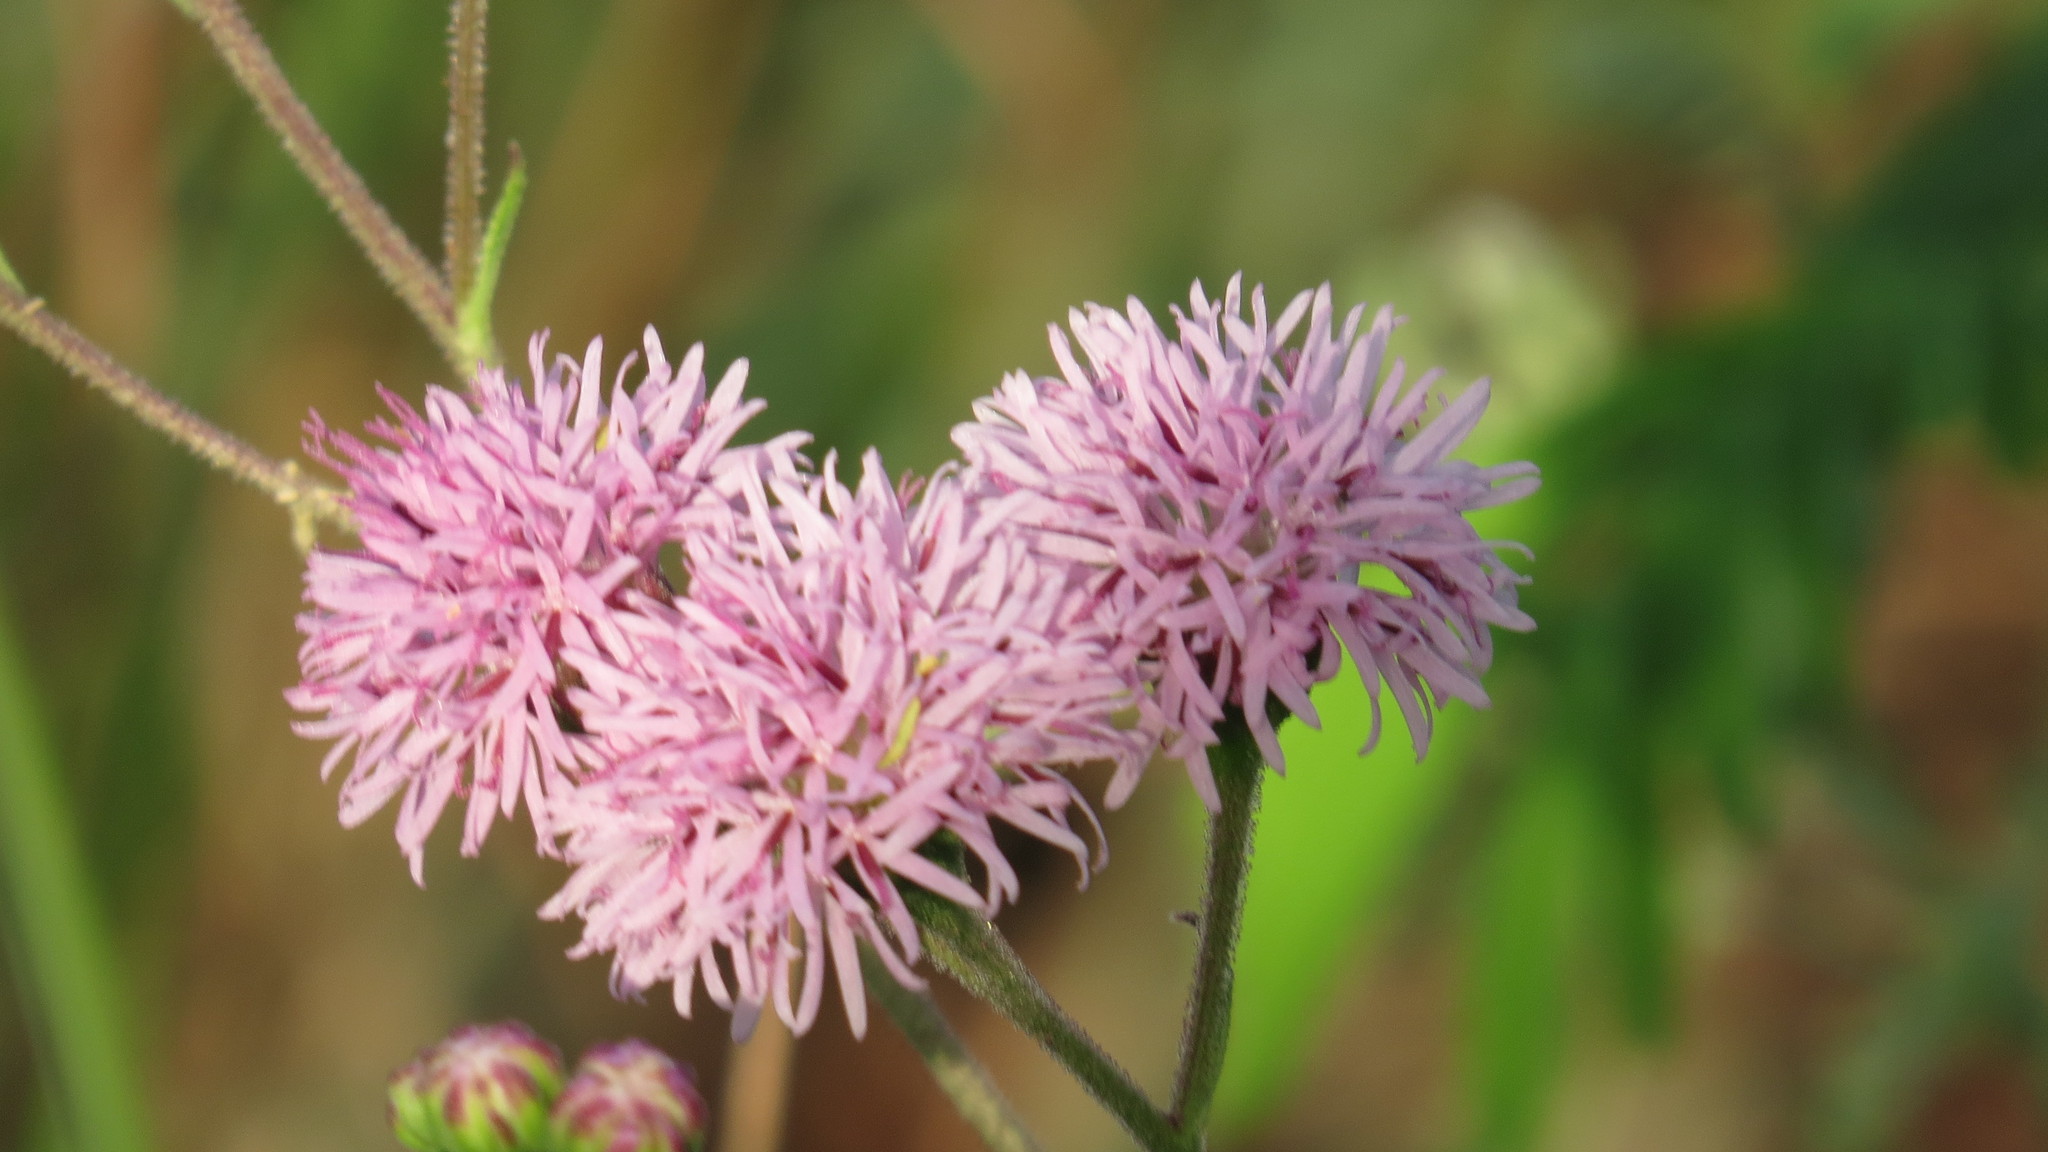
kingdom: Plantae
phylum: Tracheophyta
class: Magnoliopsida
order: Asterales
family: Asteraceae
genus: Palafoxia
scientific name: Palafoxia texana
